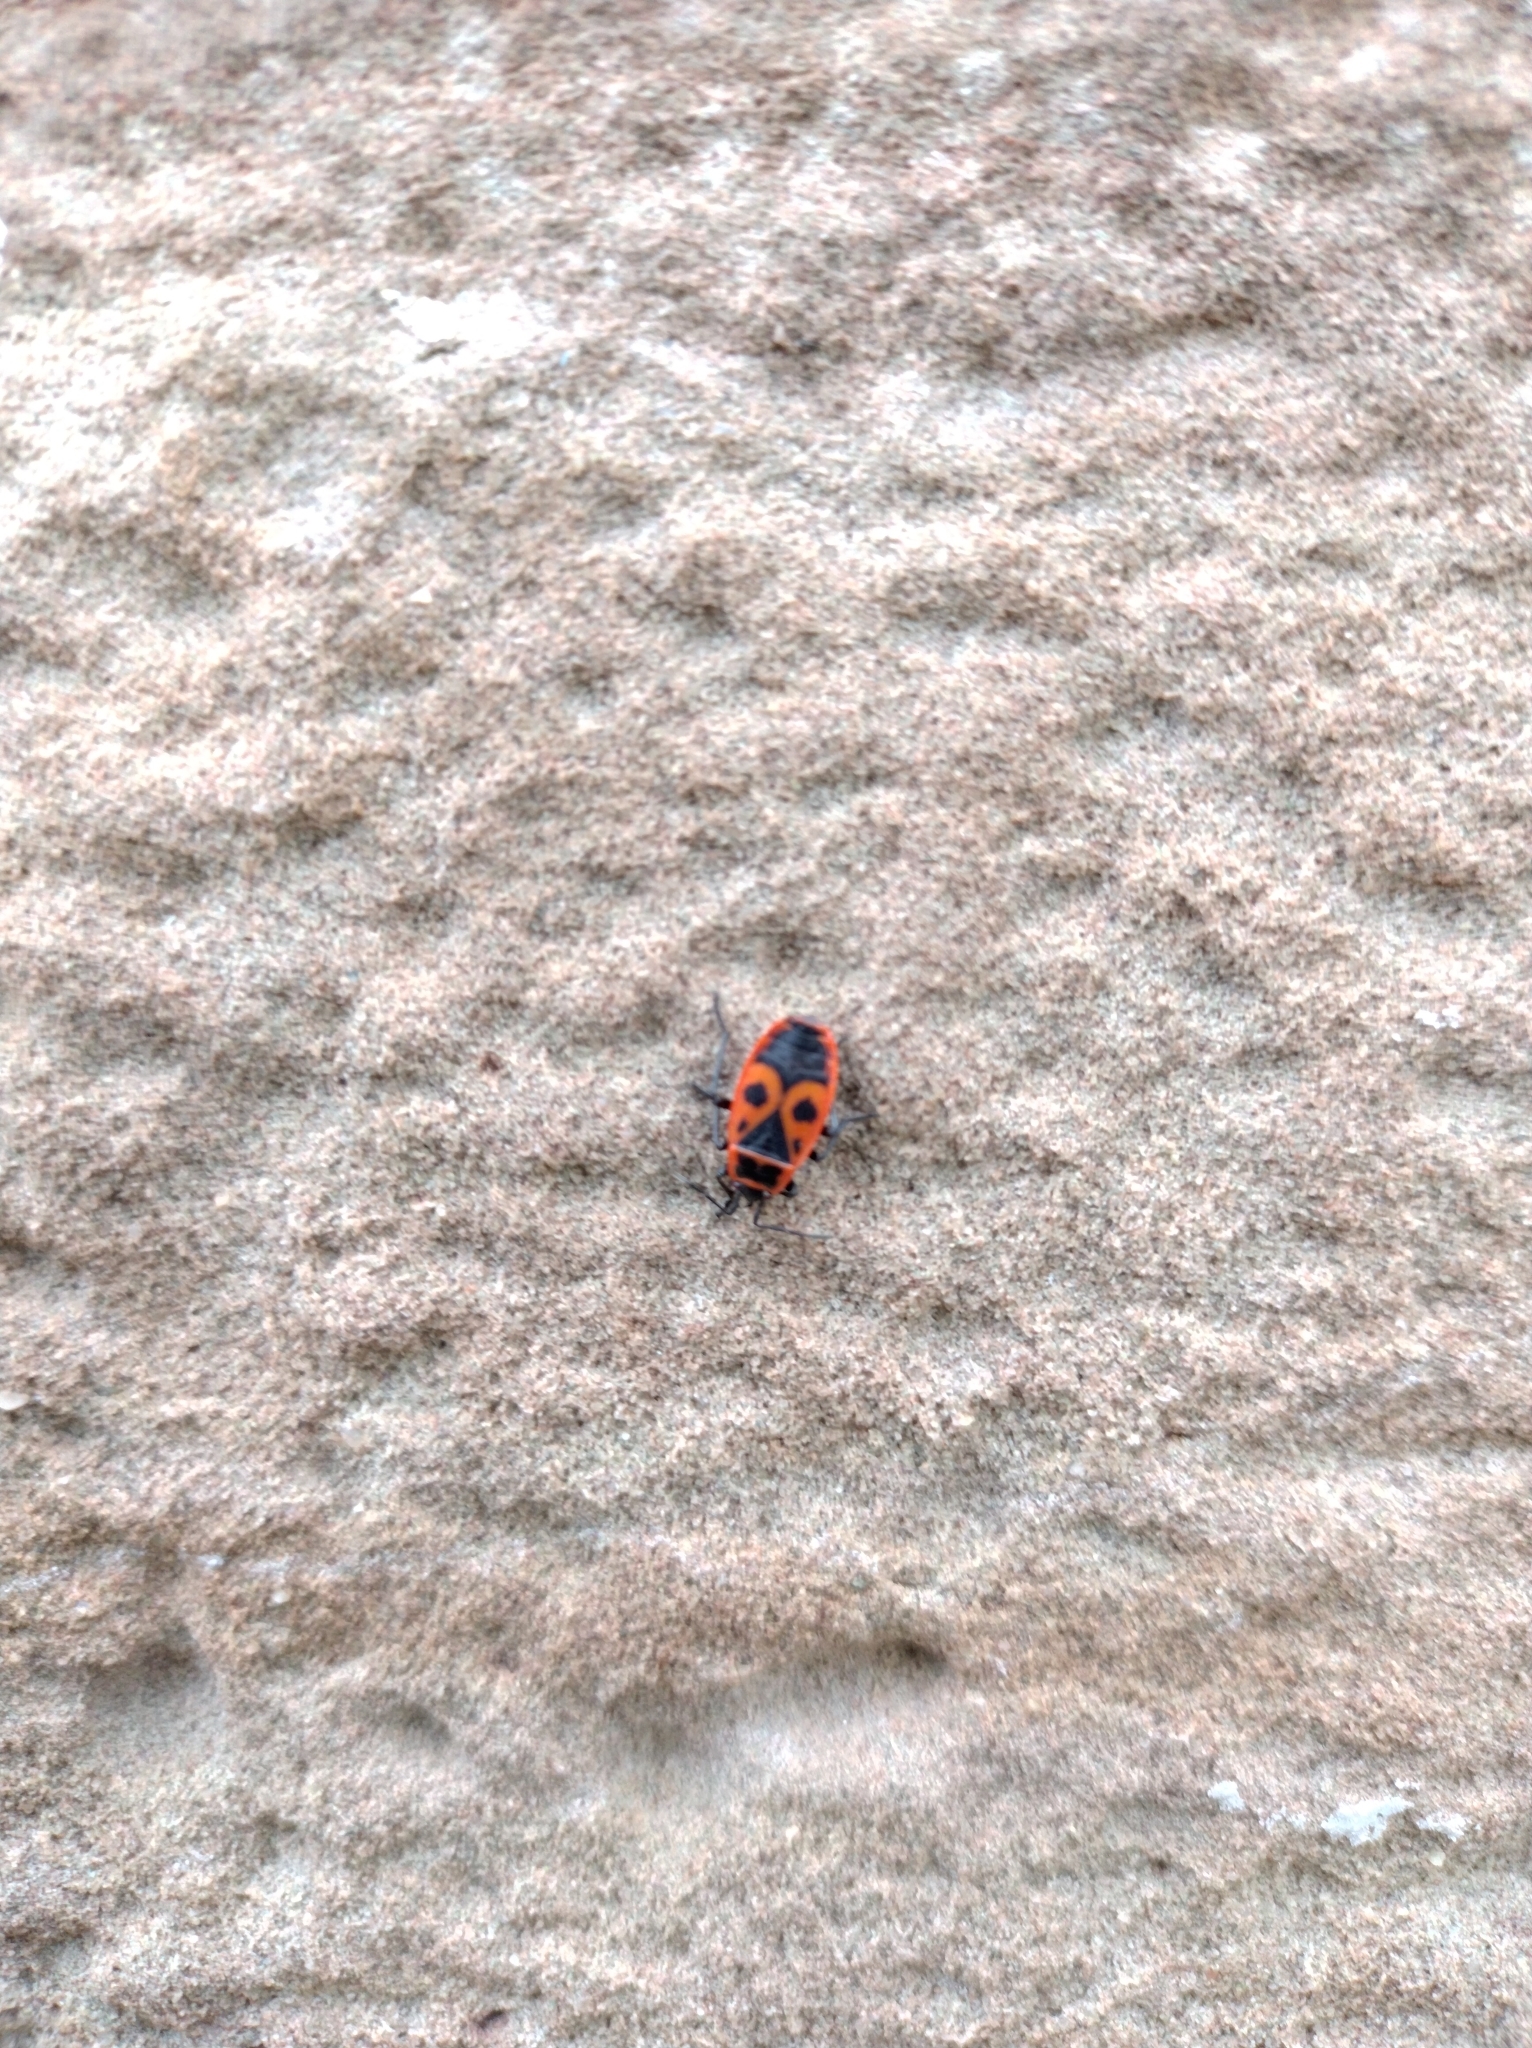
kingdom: Animalia
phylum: Arthropoda
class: Insecta
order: Hemiptera
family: Pyrrhocoridae
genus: Pyrrhocoris
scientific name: Pyrrhocoris apterus
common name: Firebug
